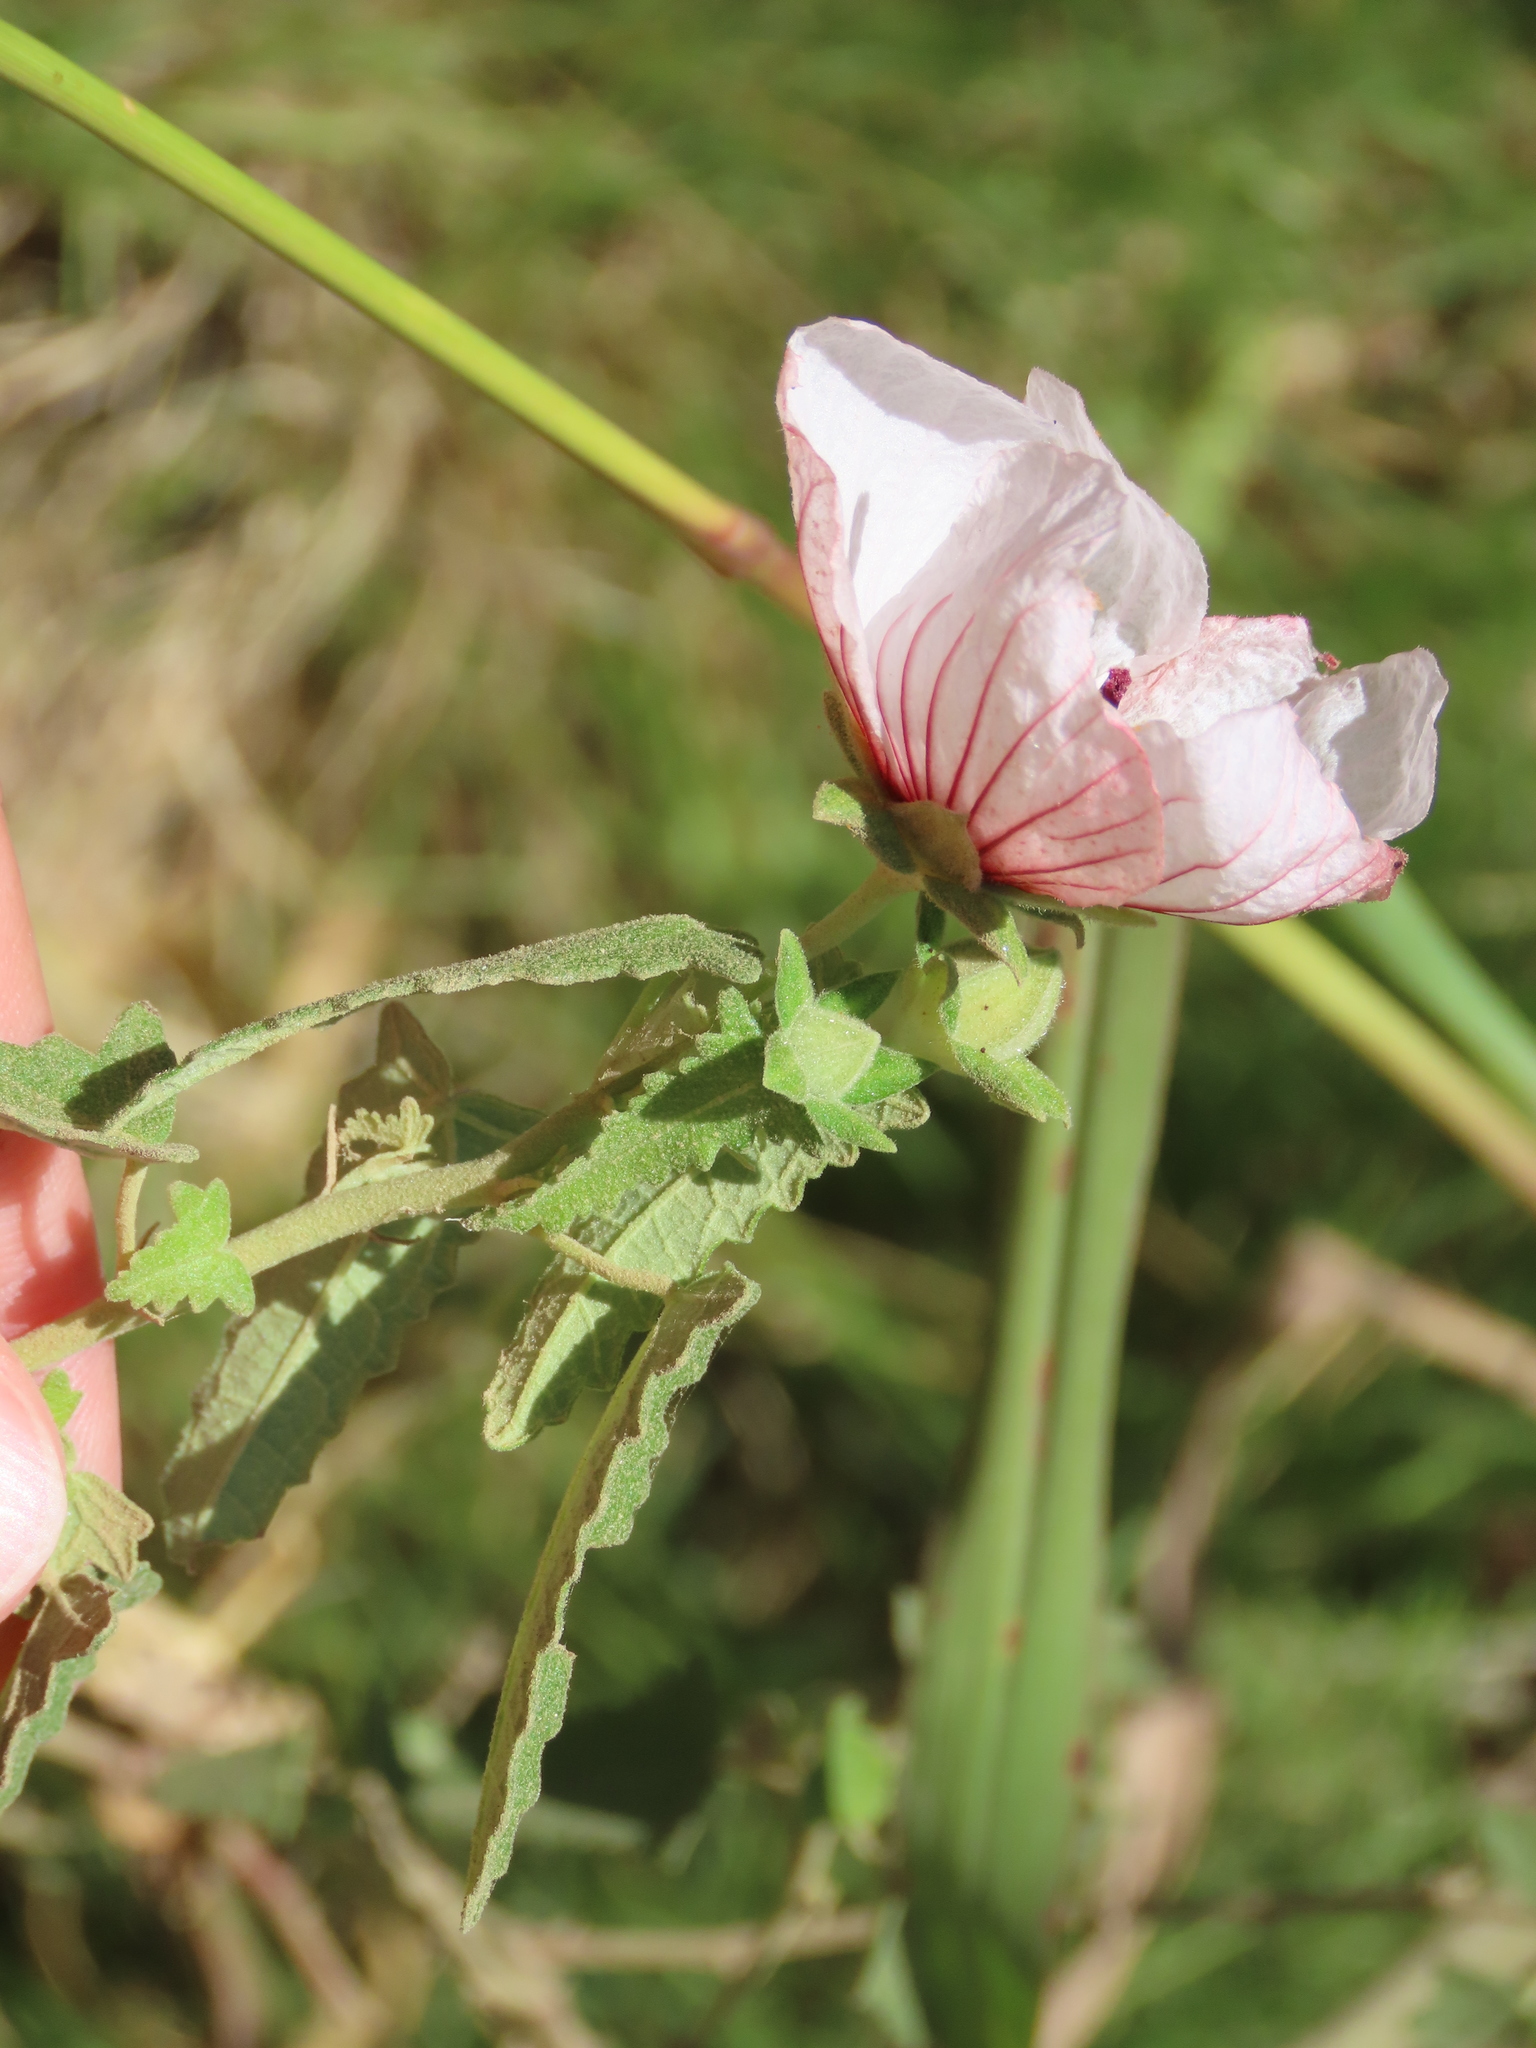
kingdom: Plantae
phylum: Tracheophyta
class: Magnoliopsida
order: Malvales
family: Malvaceae
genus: Pavonia
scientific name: Pavonia hastata
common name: Spearleaf swampmallow
